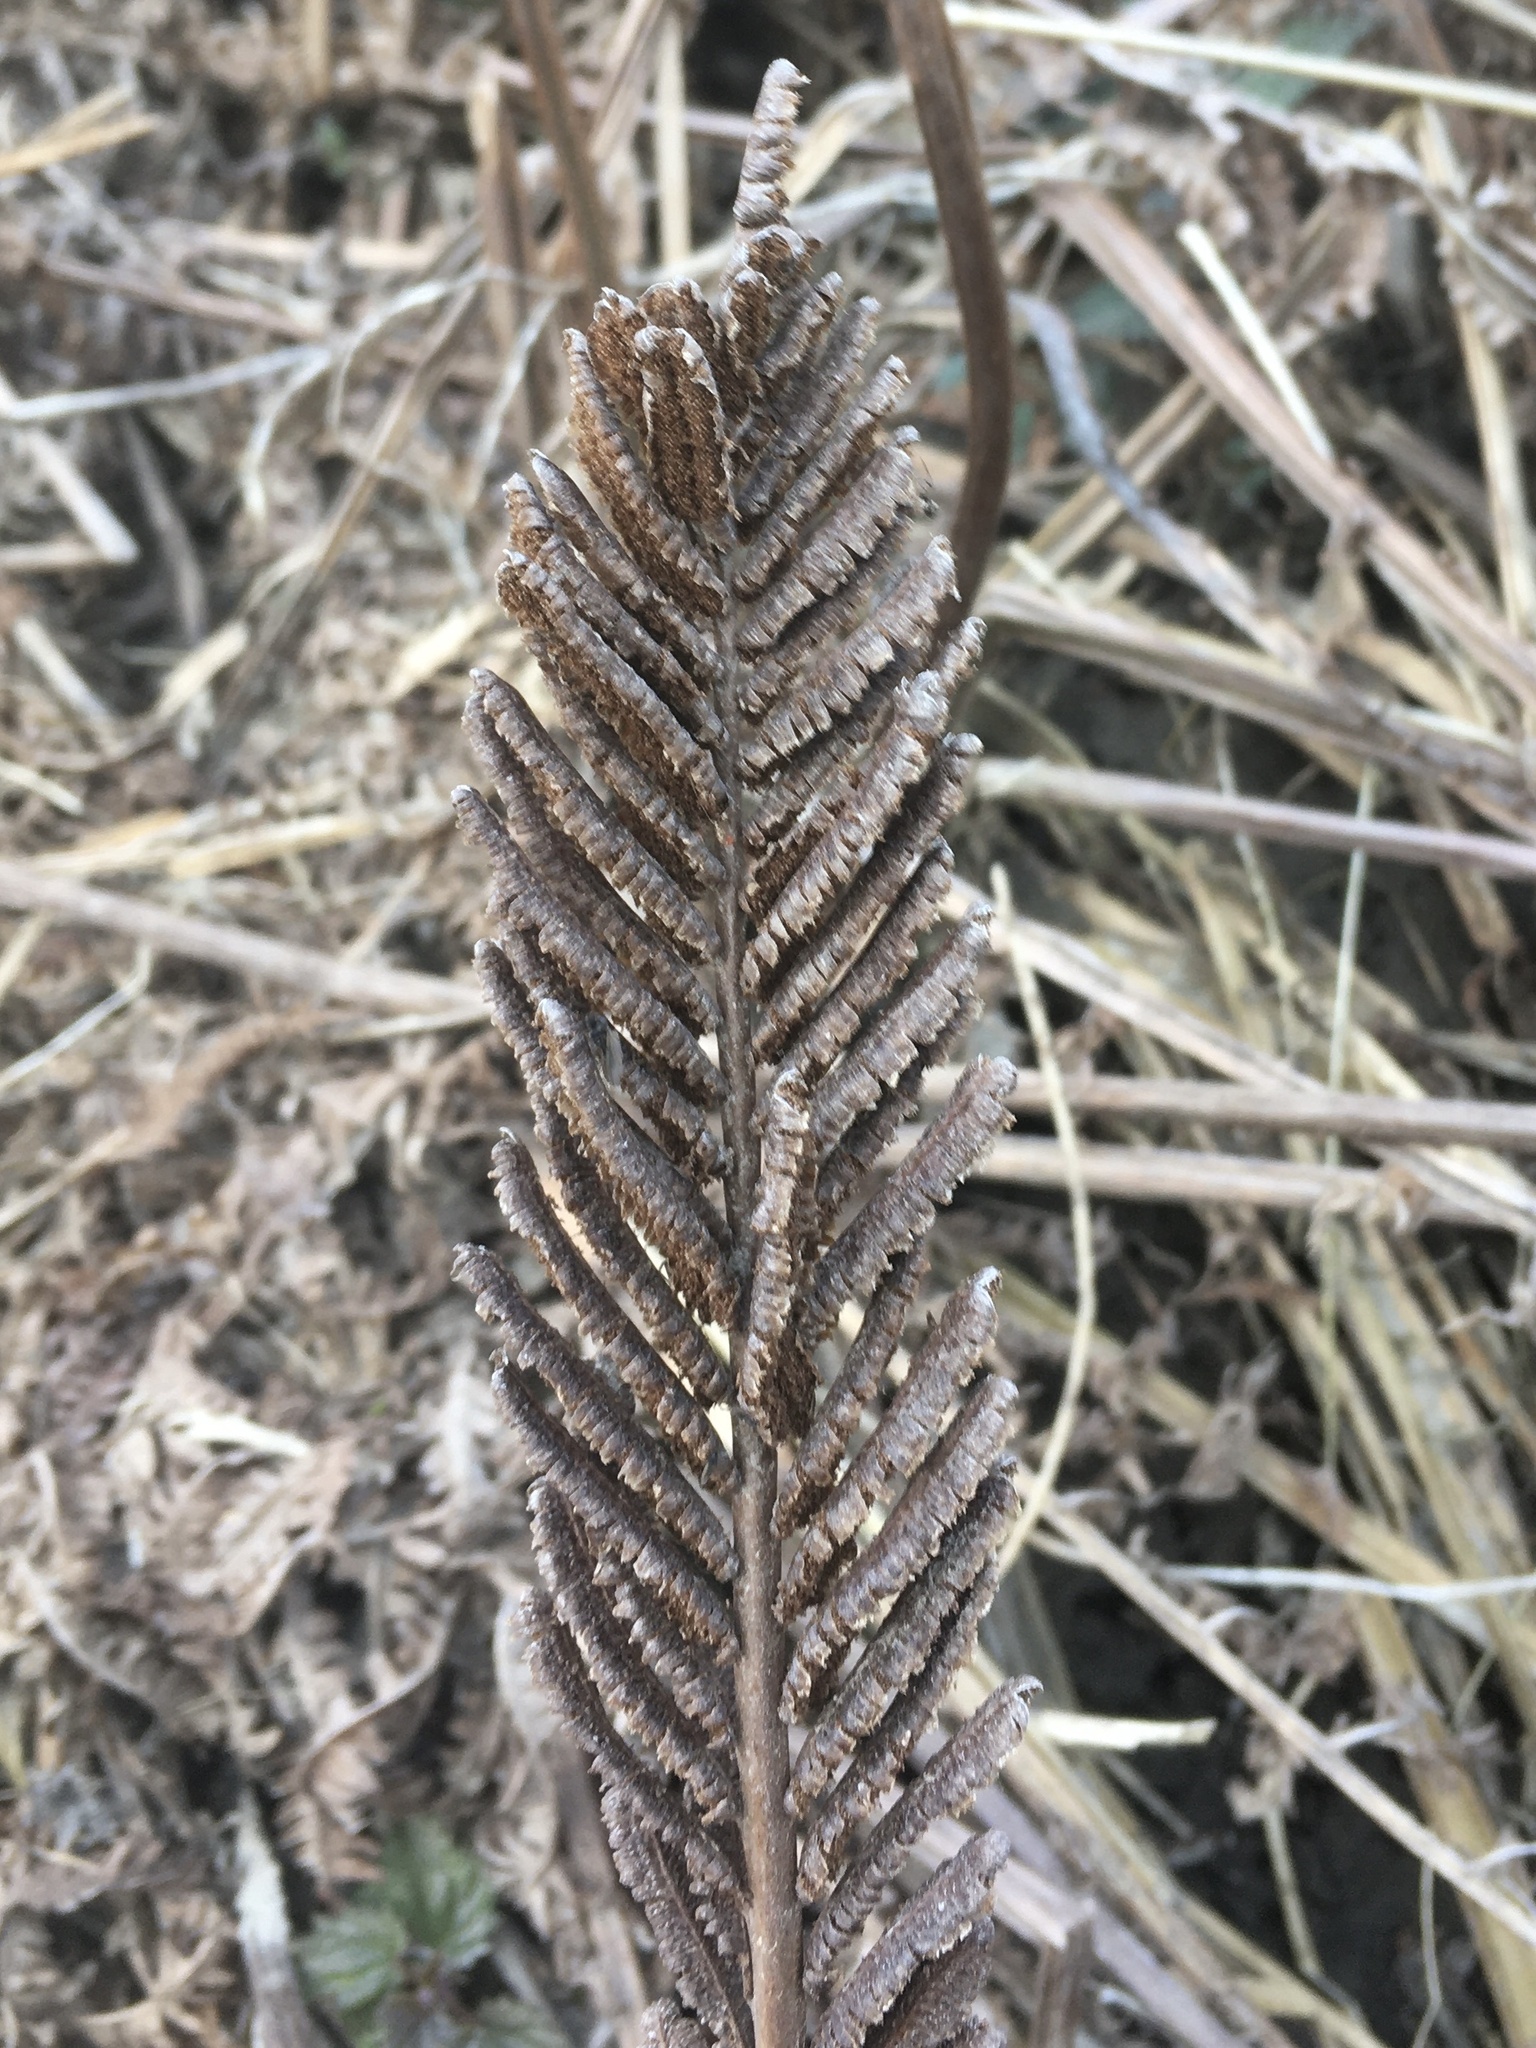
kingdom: Plantae
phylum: Tracheophyta
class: Polypodiopsida
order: Polypodiales
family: Onocleaceae
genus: Matteuccia
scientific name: Matteuccia struthiopteris
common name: Ostrich fern
